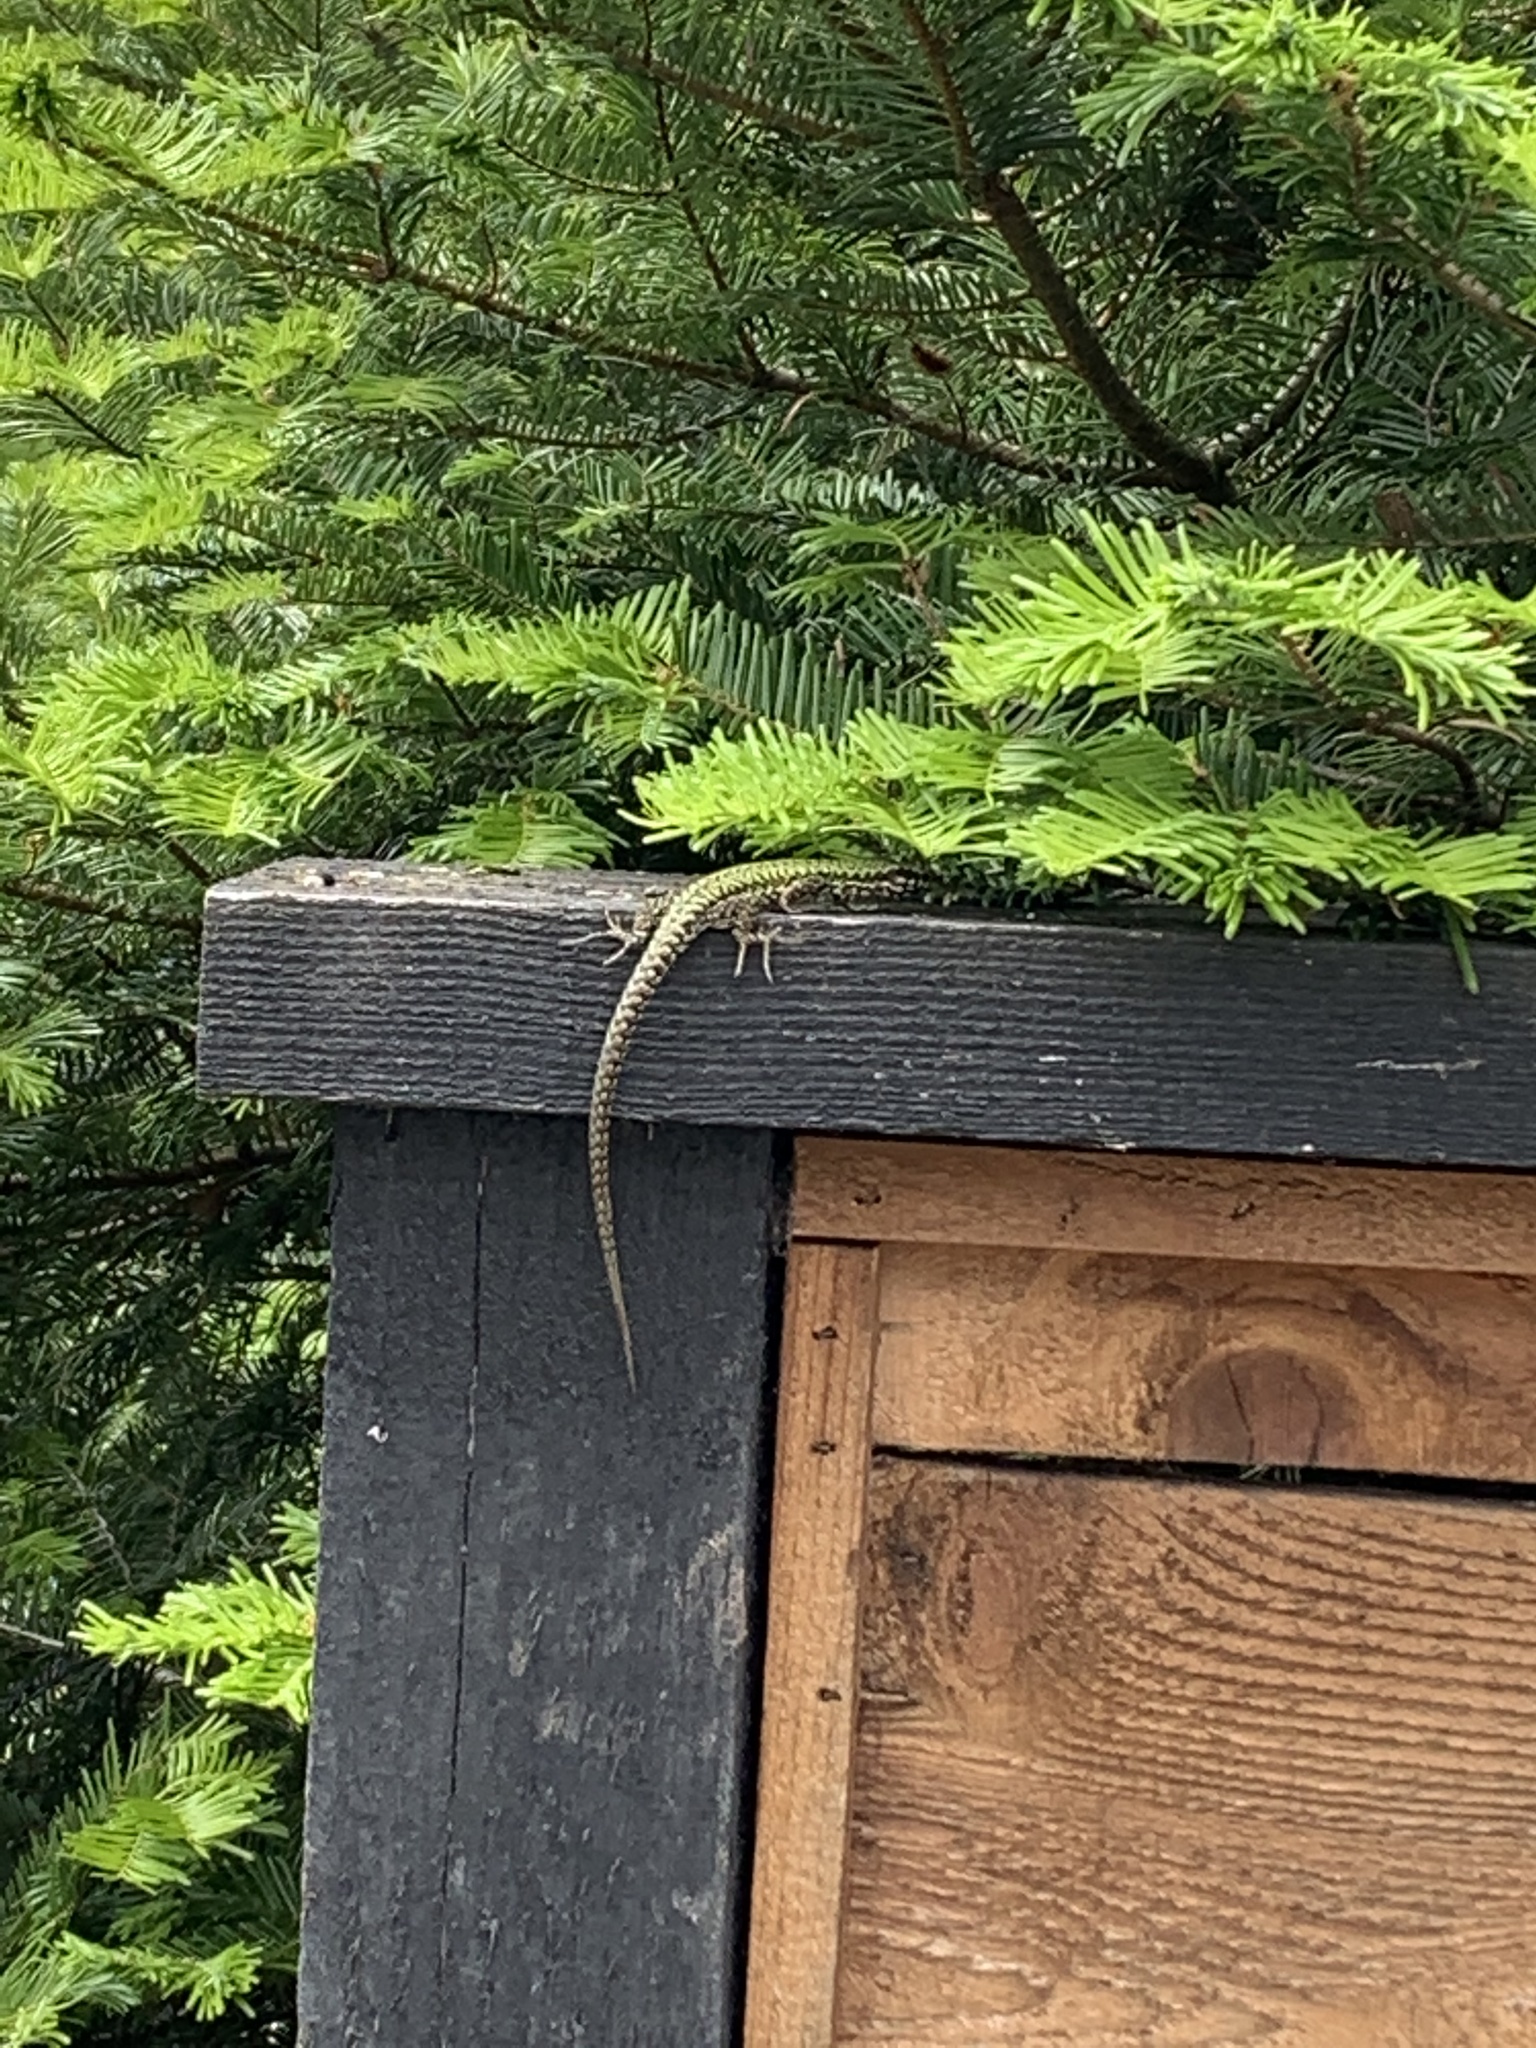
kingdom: Animalia
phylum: Chordata
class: Squamata
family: Lacertidae
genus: Podarcis
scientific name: Podarcis muralis
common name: Common wall lizard
